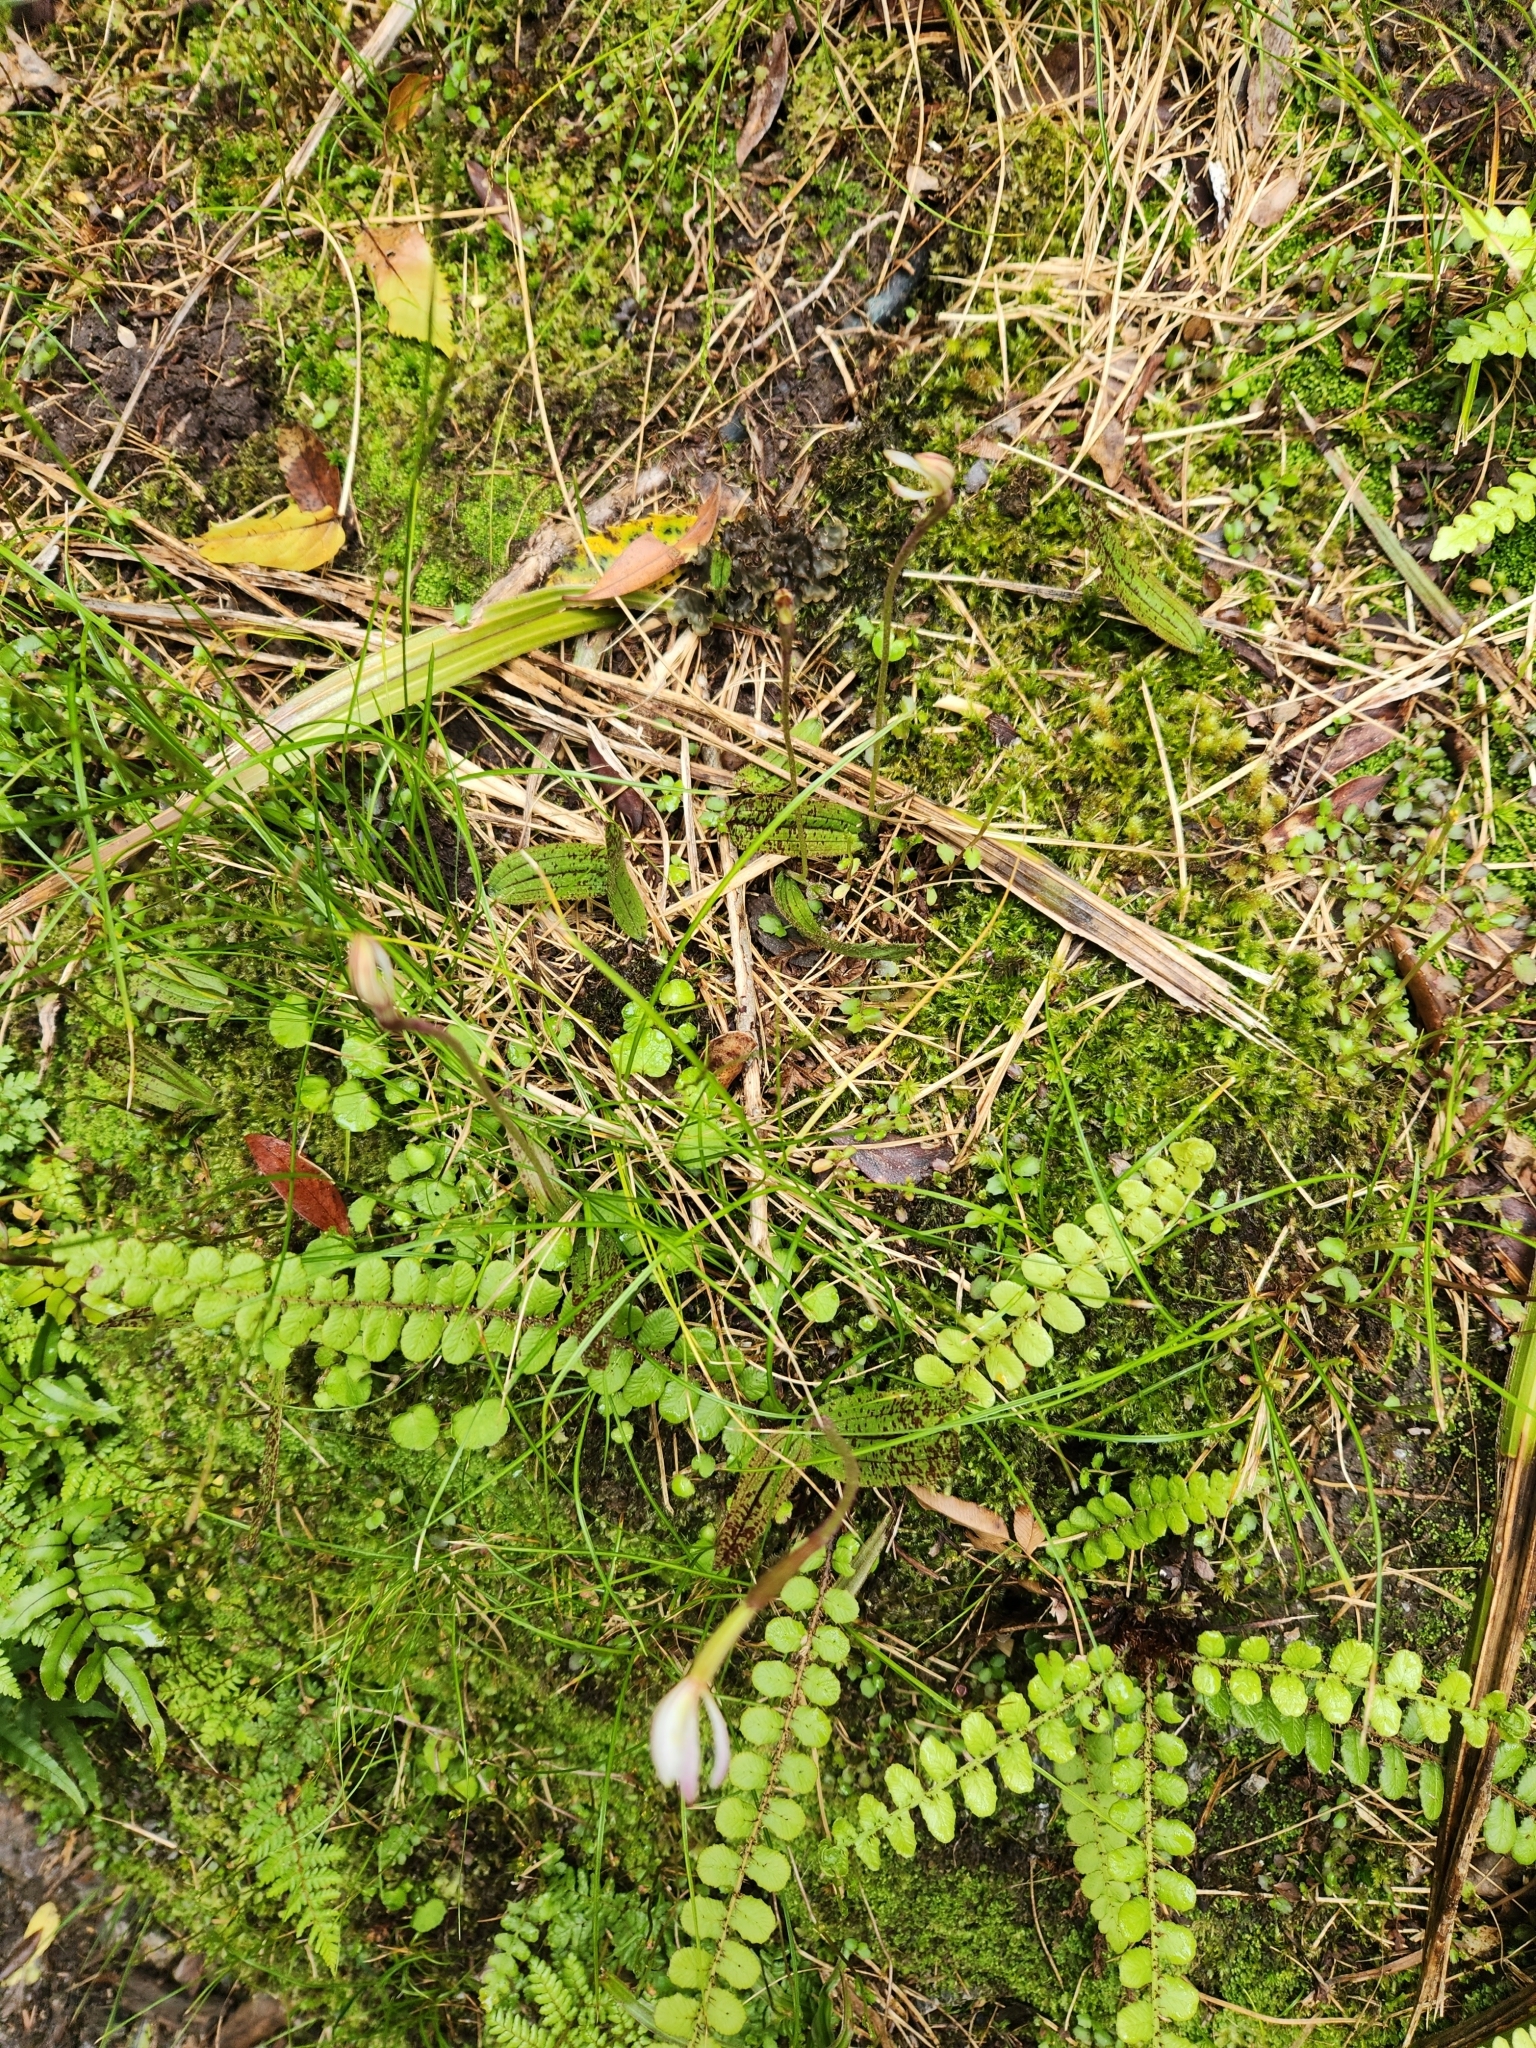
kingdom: Plantae
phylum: Tracheophyta
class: Liliopsida
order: Asparagales
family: Orchidaceae
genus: Aporostylis
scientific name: Aporostylis bifolia
